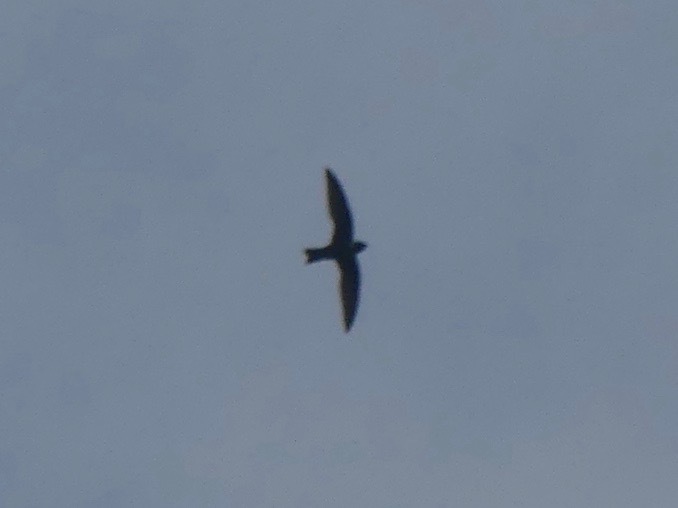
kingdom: Animalia
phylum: Chordata
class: Aves
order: Apodiformes
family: Apodidae
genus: Streptoprocne
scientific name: Streptoprocne zonaris
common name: White-collared swift
